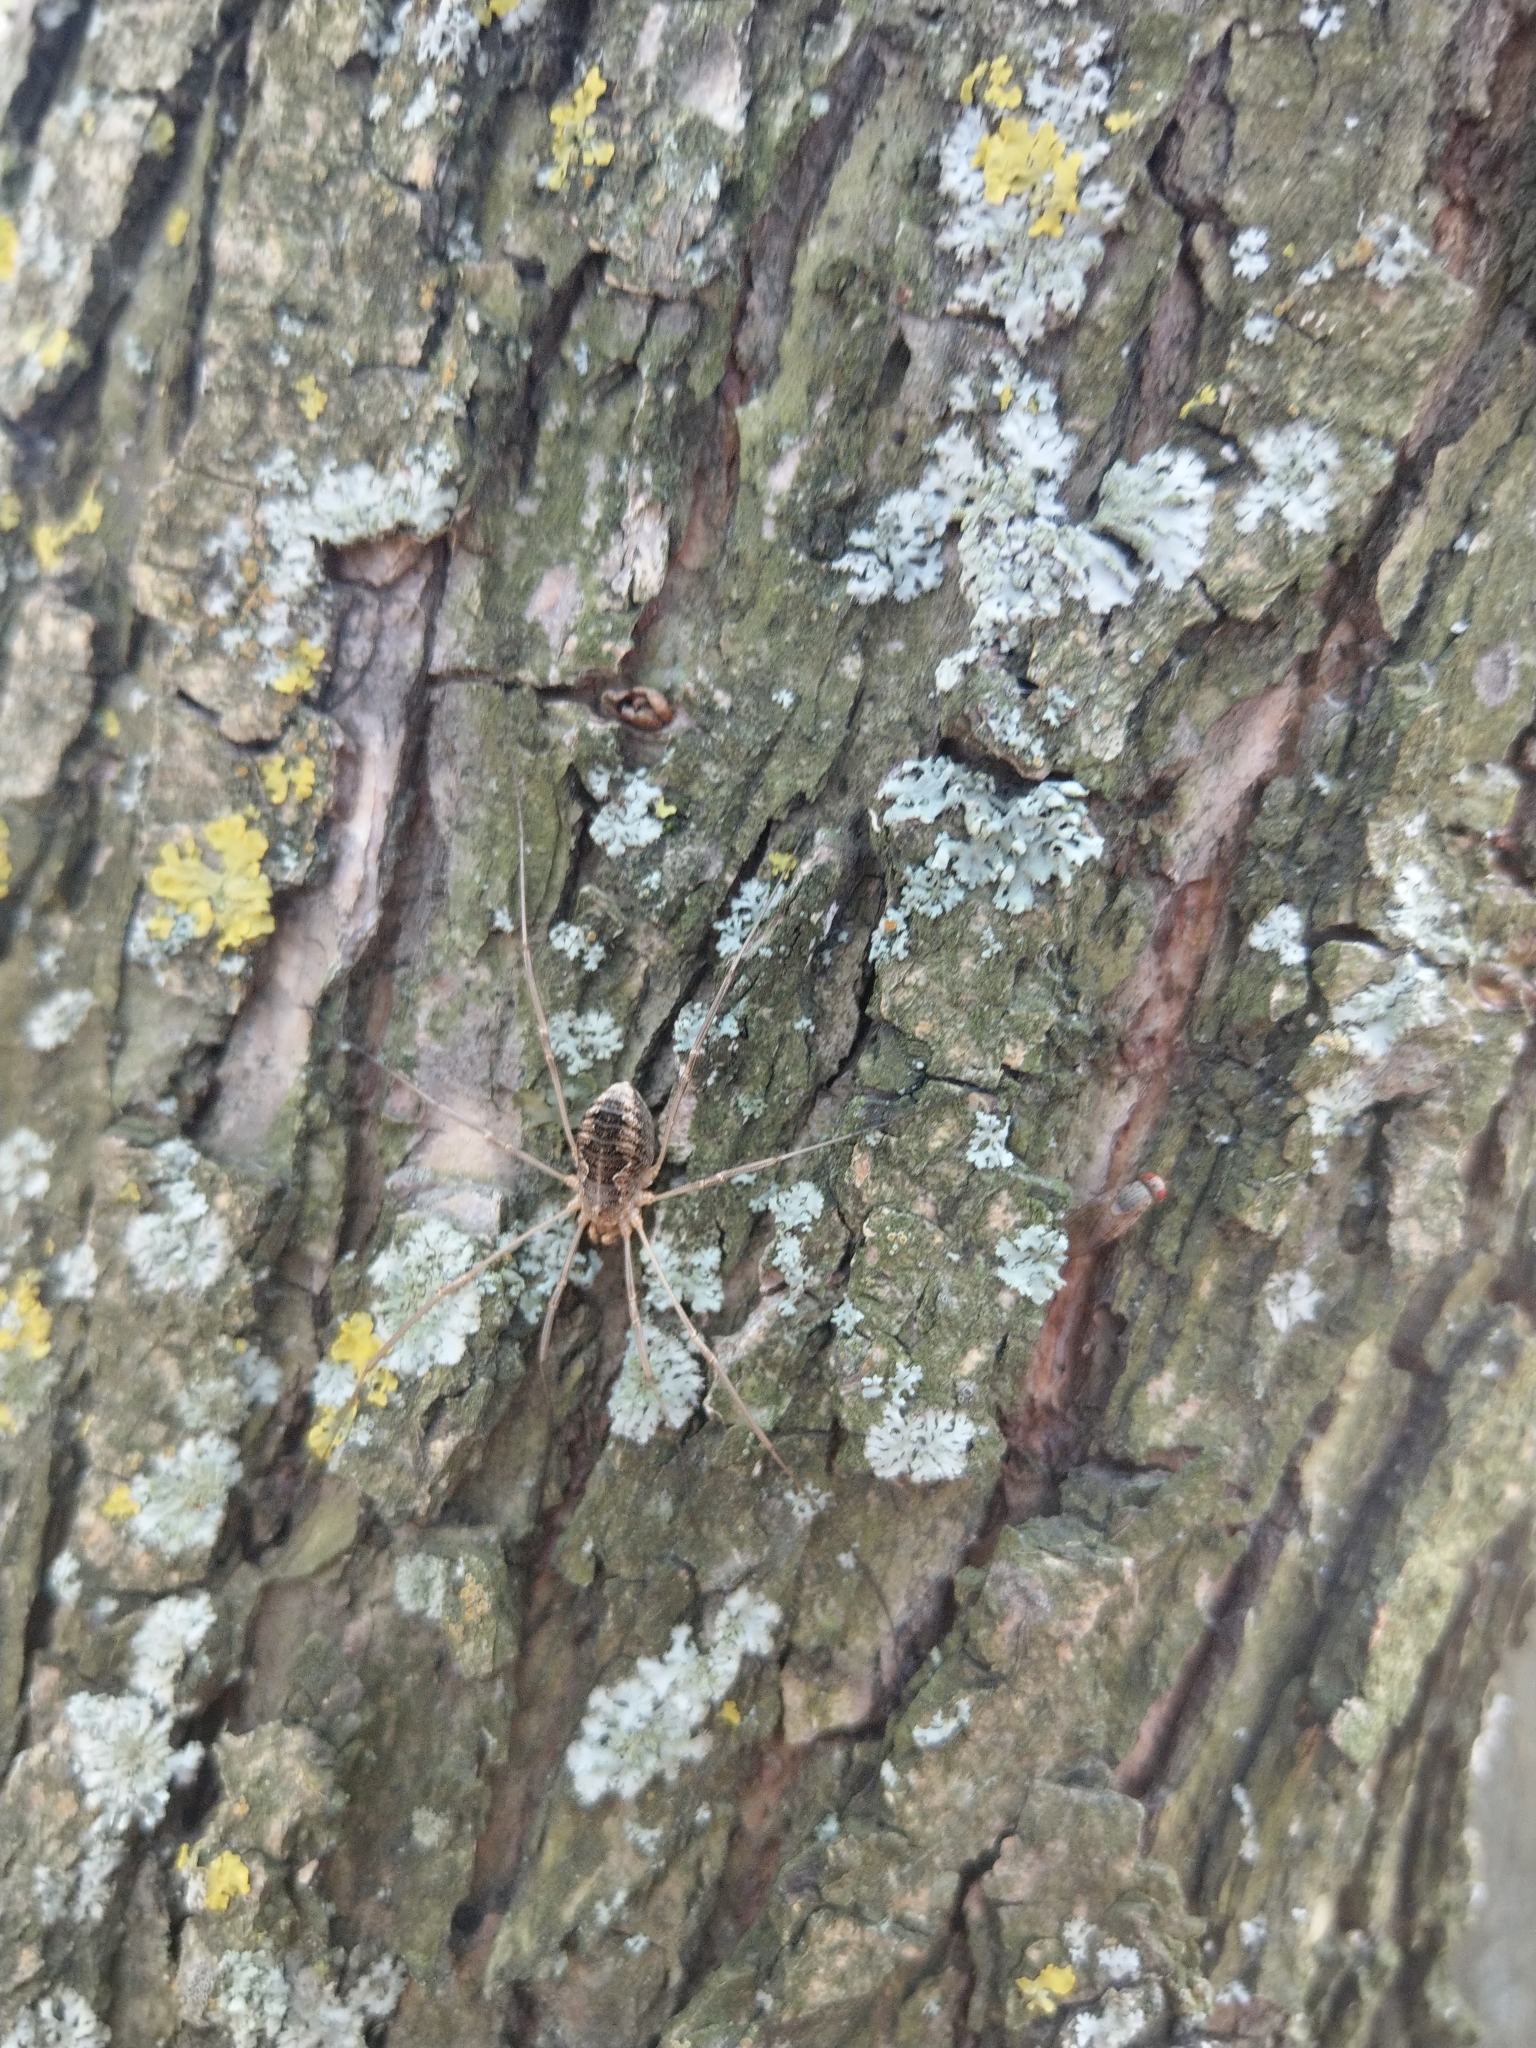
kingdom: Animalia
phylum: Arthropoda
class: Arachnida
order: Opiliones
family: Phalangiidae
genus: Phalangium
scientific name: Phalangium opilio
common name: Daddy longleg
